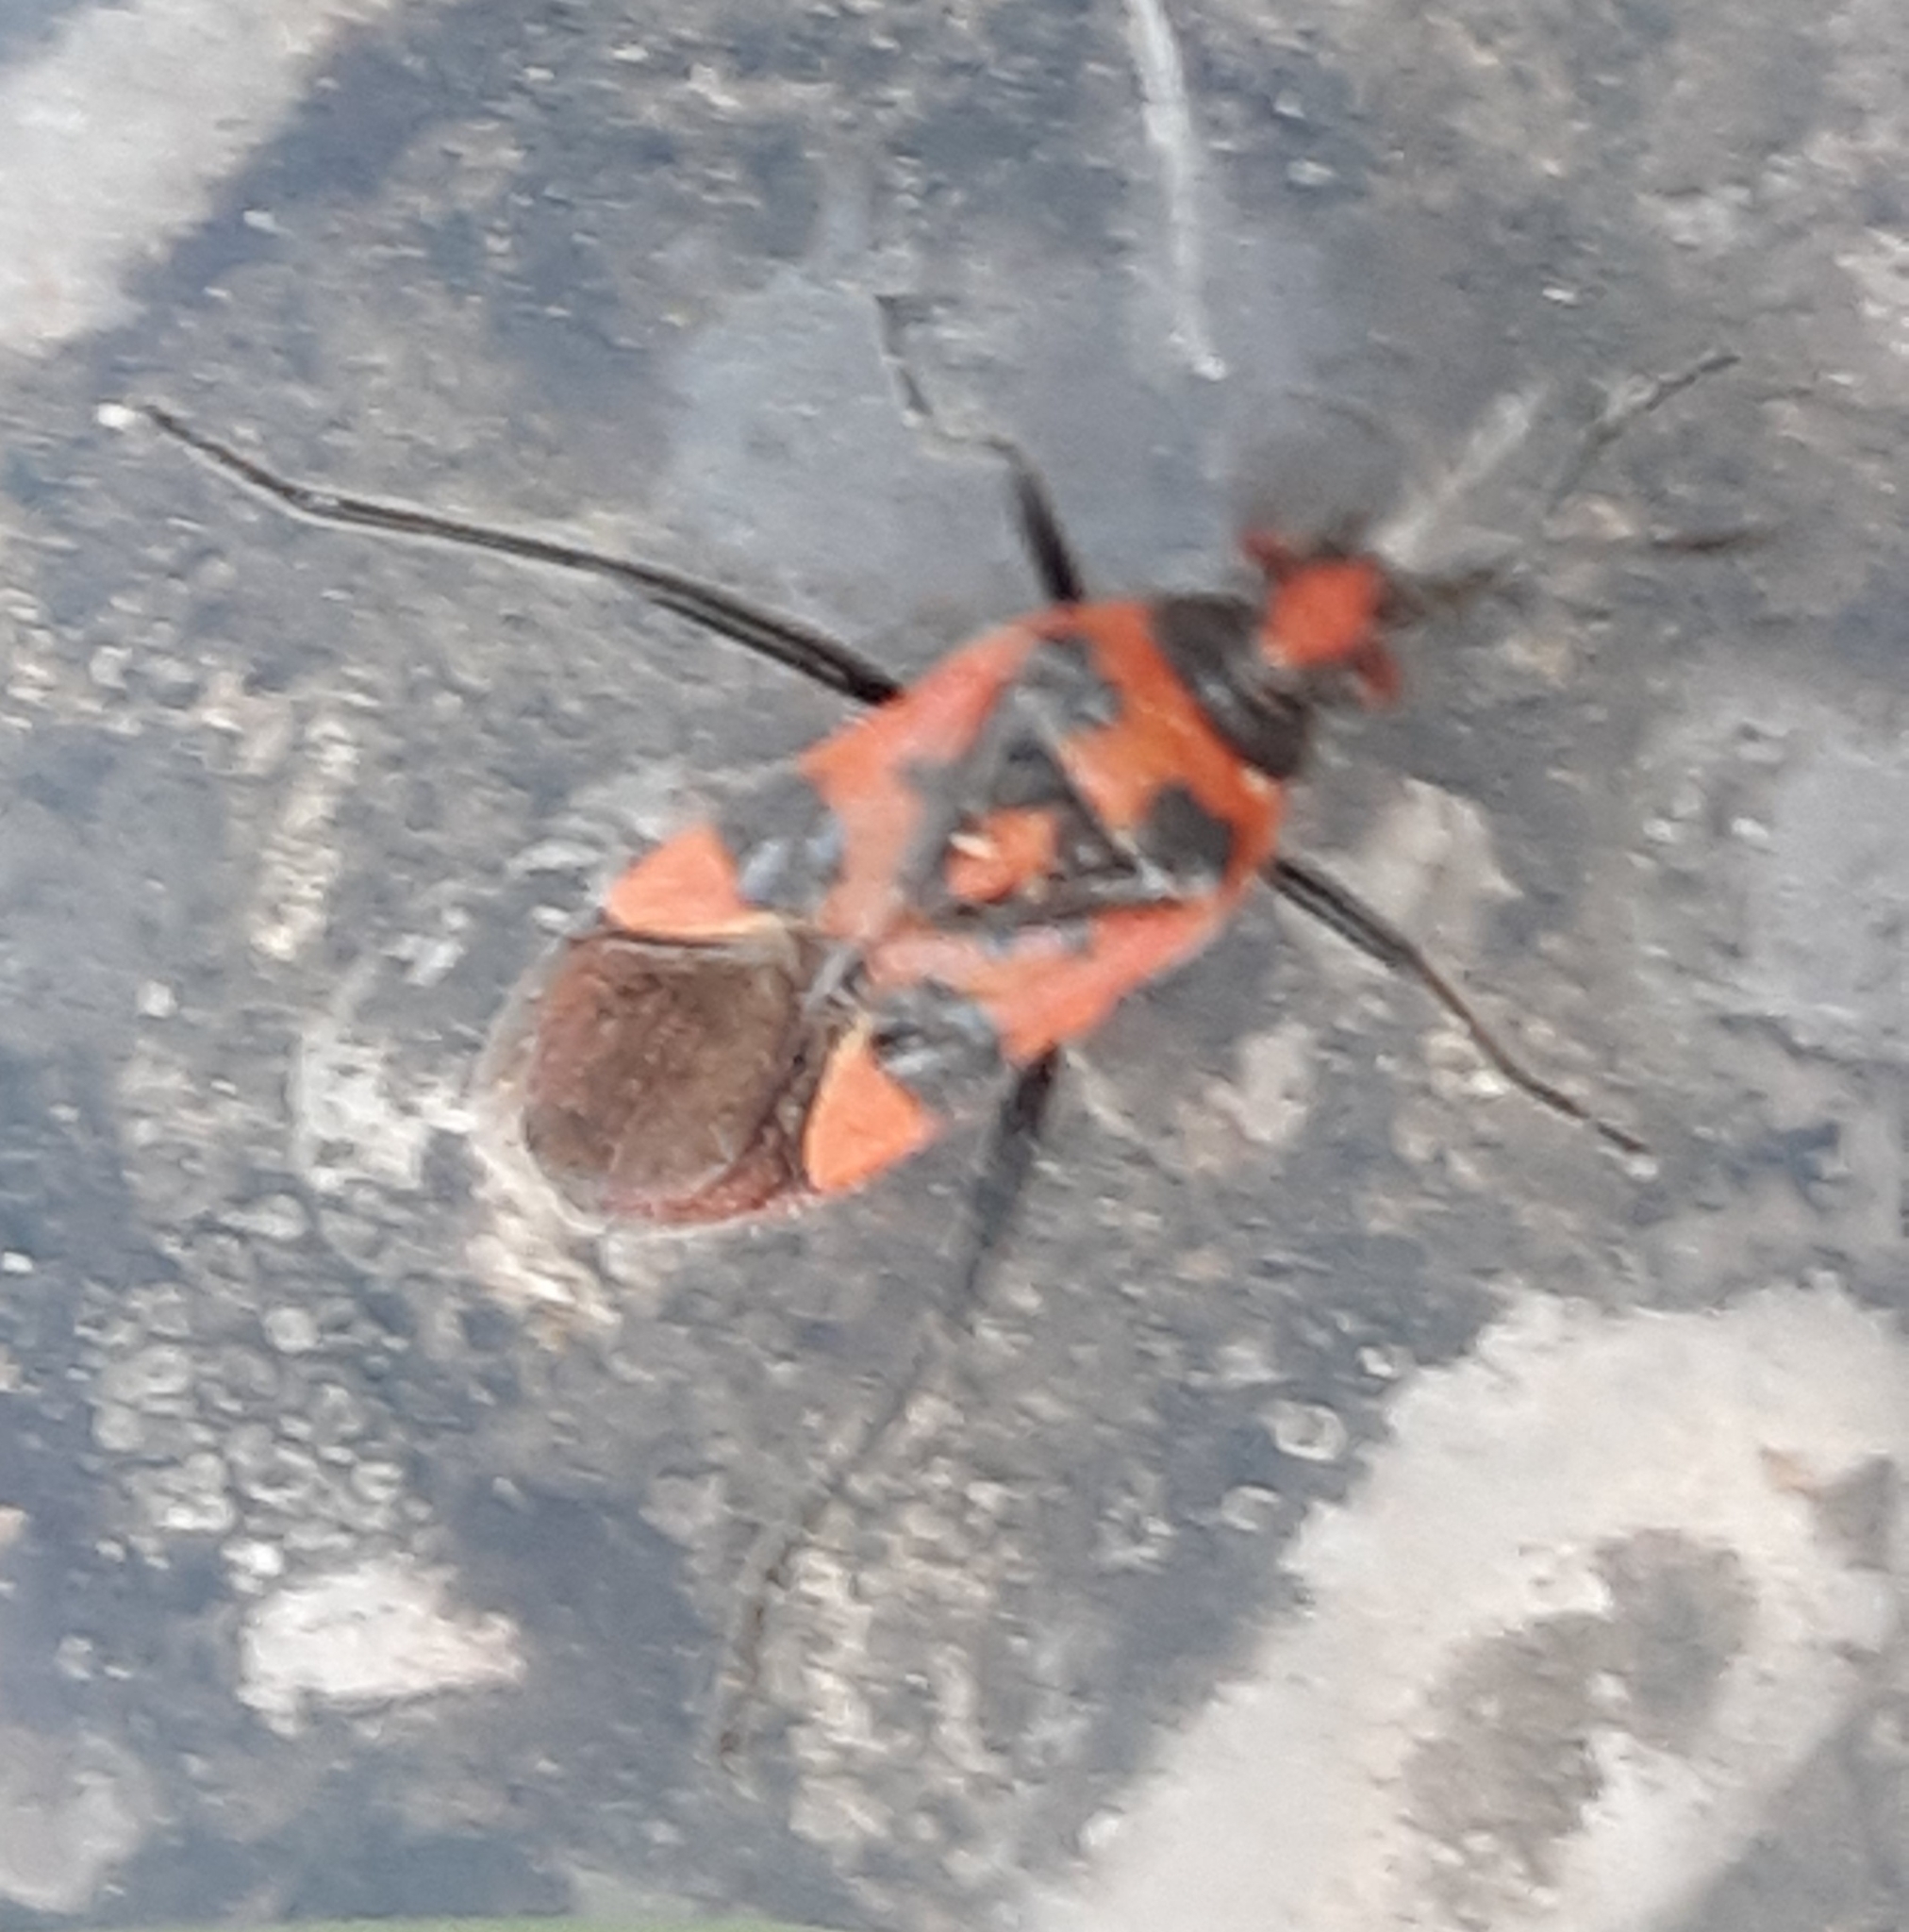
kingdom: Animalia
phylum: Arthropoda
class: Insecta
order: Hemiptera
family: Rhopalidae
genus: Corizus
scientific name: Corizus hyoscyami
